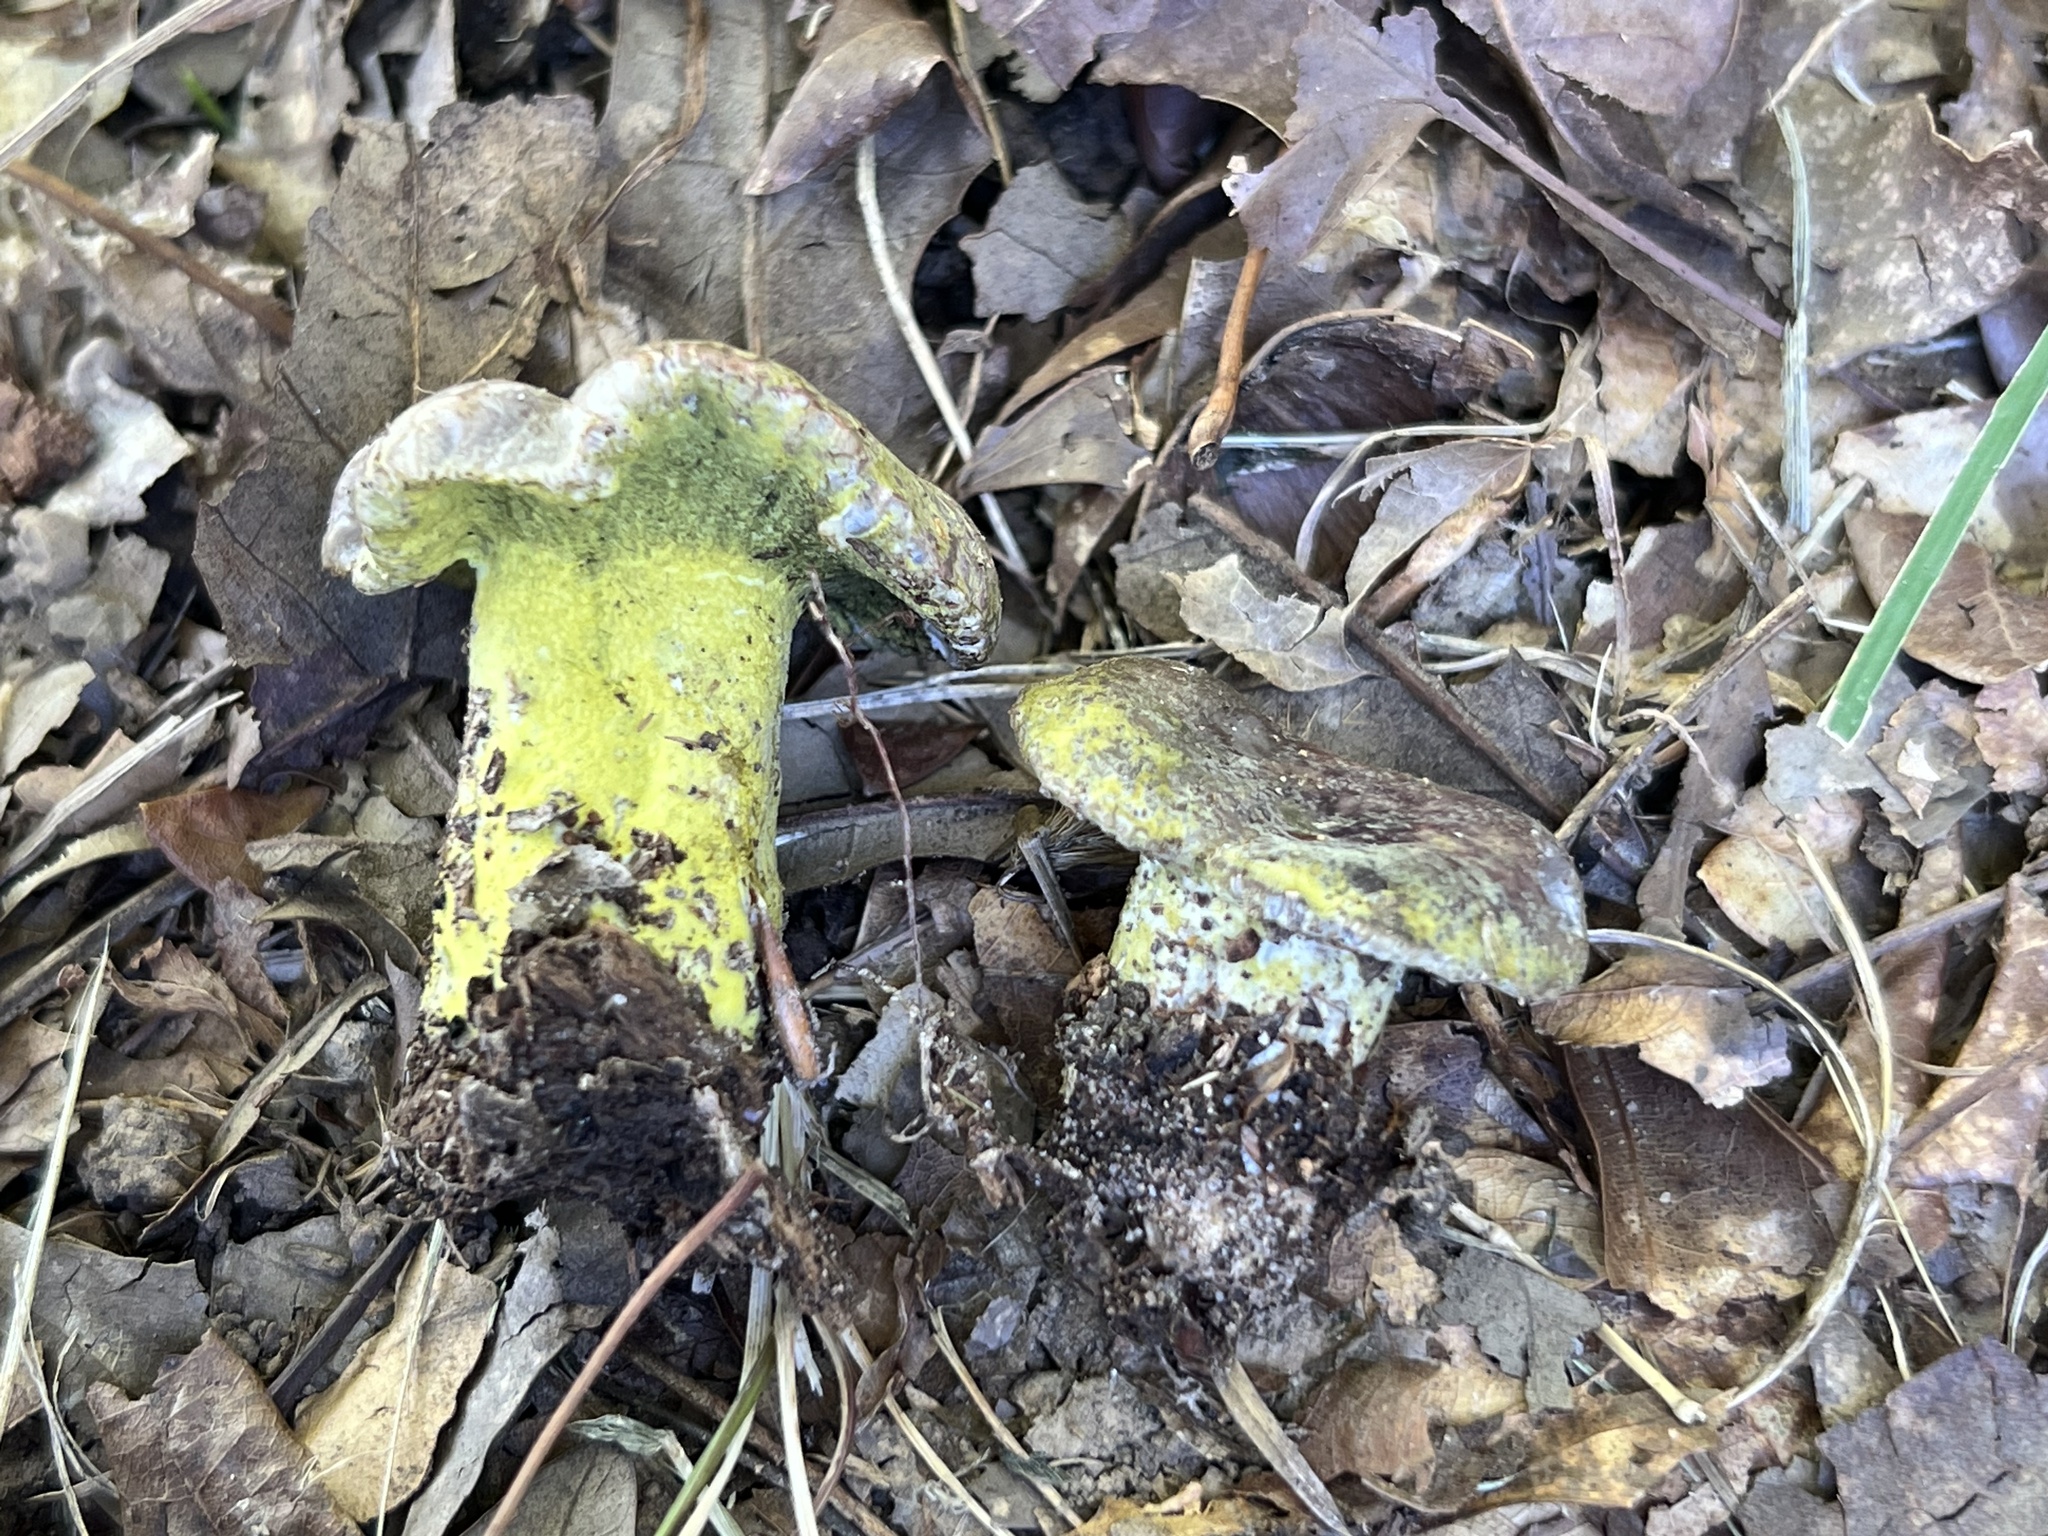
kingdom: Fungi
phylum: Ascomycota
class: Sordariomycetes
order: Hypocreales
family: Hypocreaceae
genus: Hypomyces
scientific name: Hypomyces luteovirens
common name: Yellow-green russula mold
